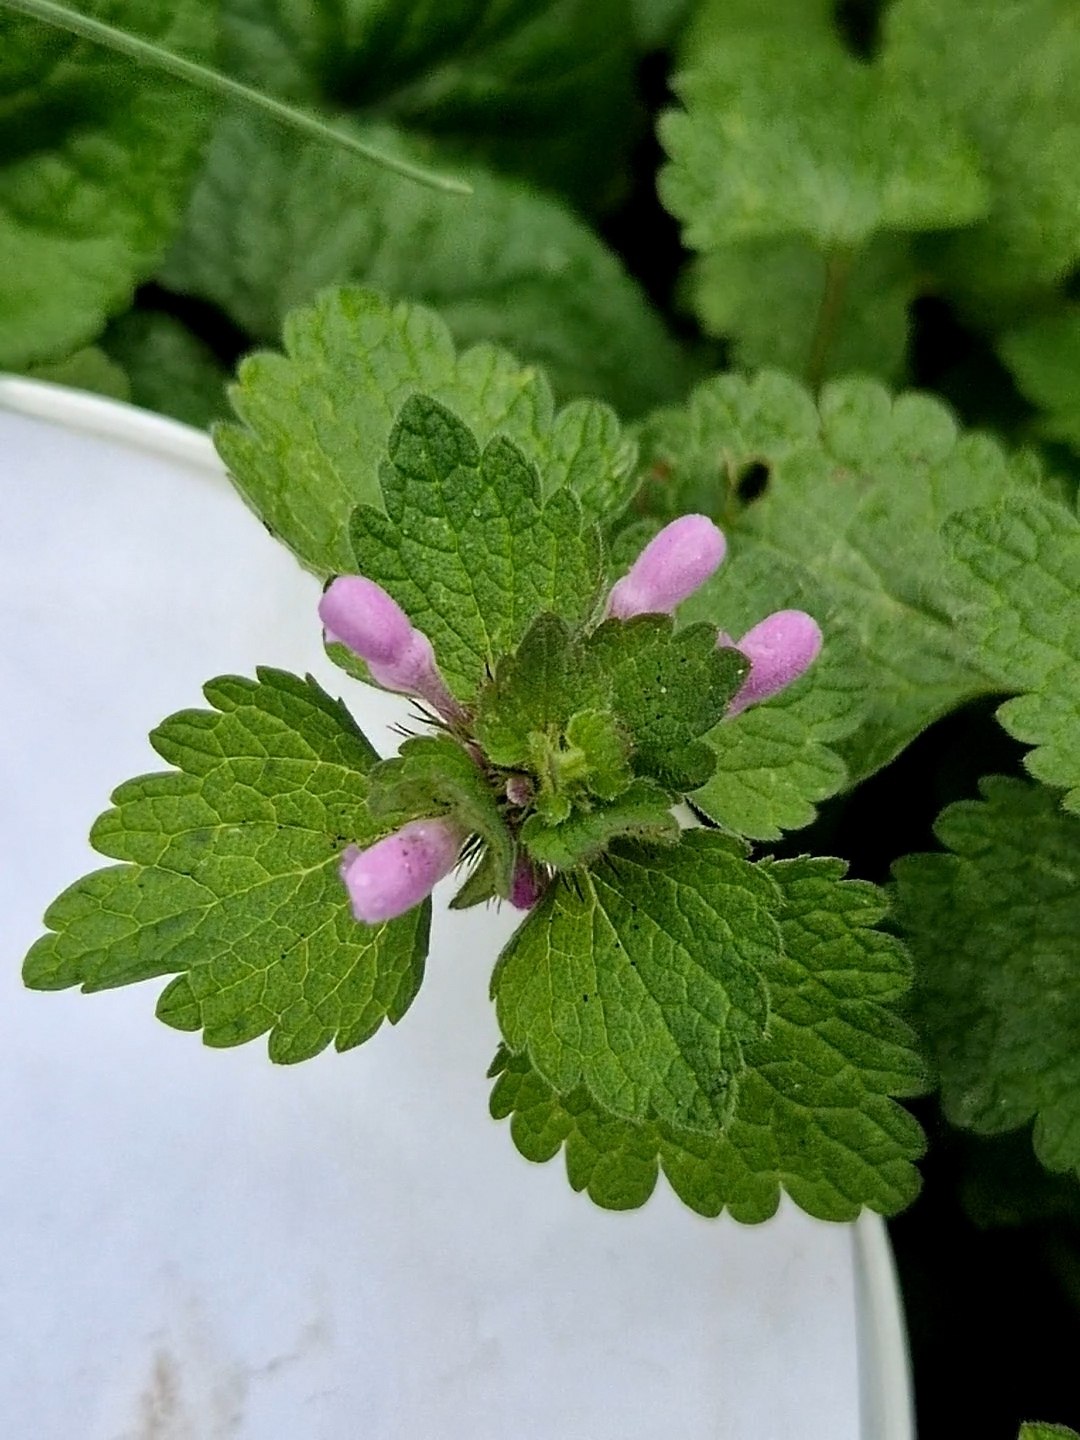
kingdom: Plantae
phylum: Tracheophyta
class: Magnoliopsida
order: Lamiales
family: Lamiaceae
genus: Lamium
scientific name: Lamium purpureum
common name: Red dead-nettle
